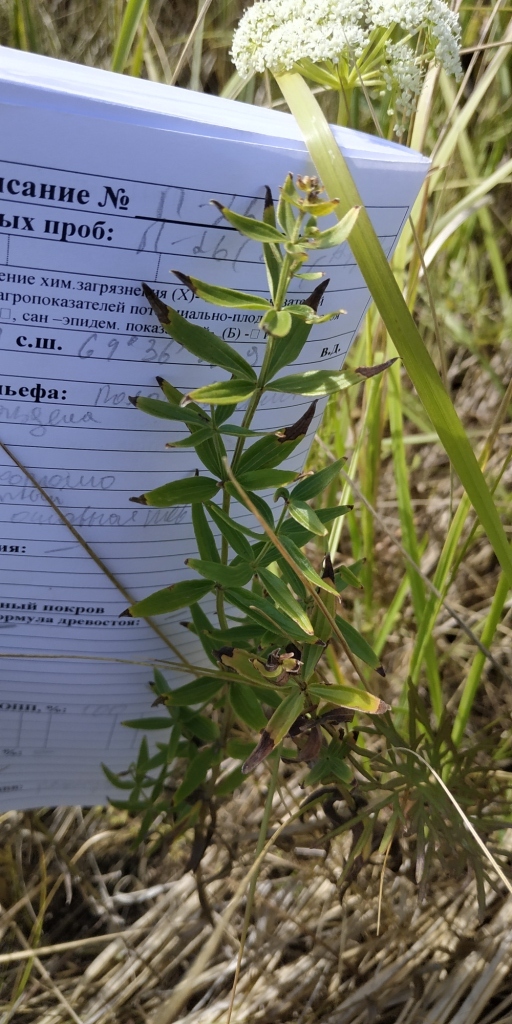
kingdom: Plantae
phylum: Tracheophyta
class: Magnoliopsida
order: Gentianales
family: Rubiaceae
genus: Galium
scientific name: Galium boreale
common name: Northern bedstraw
